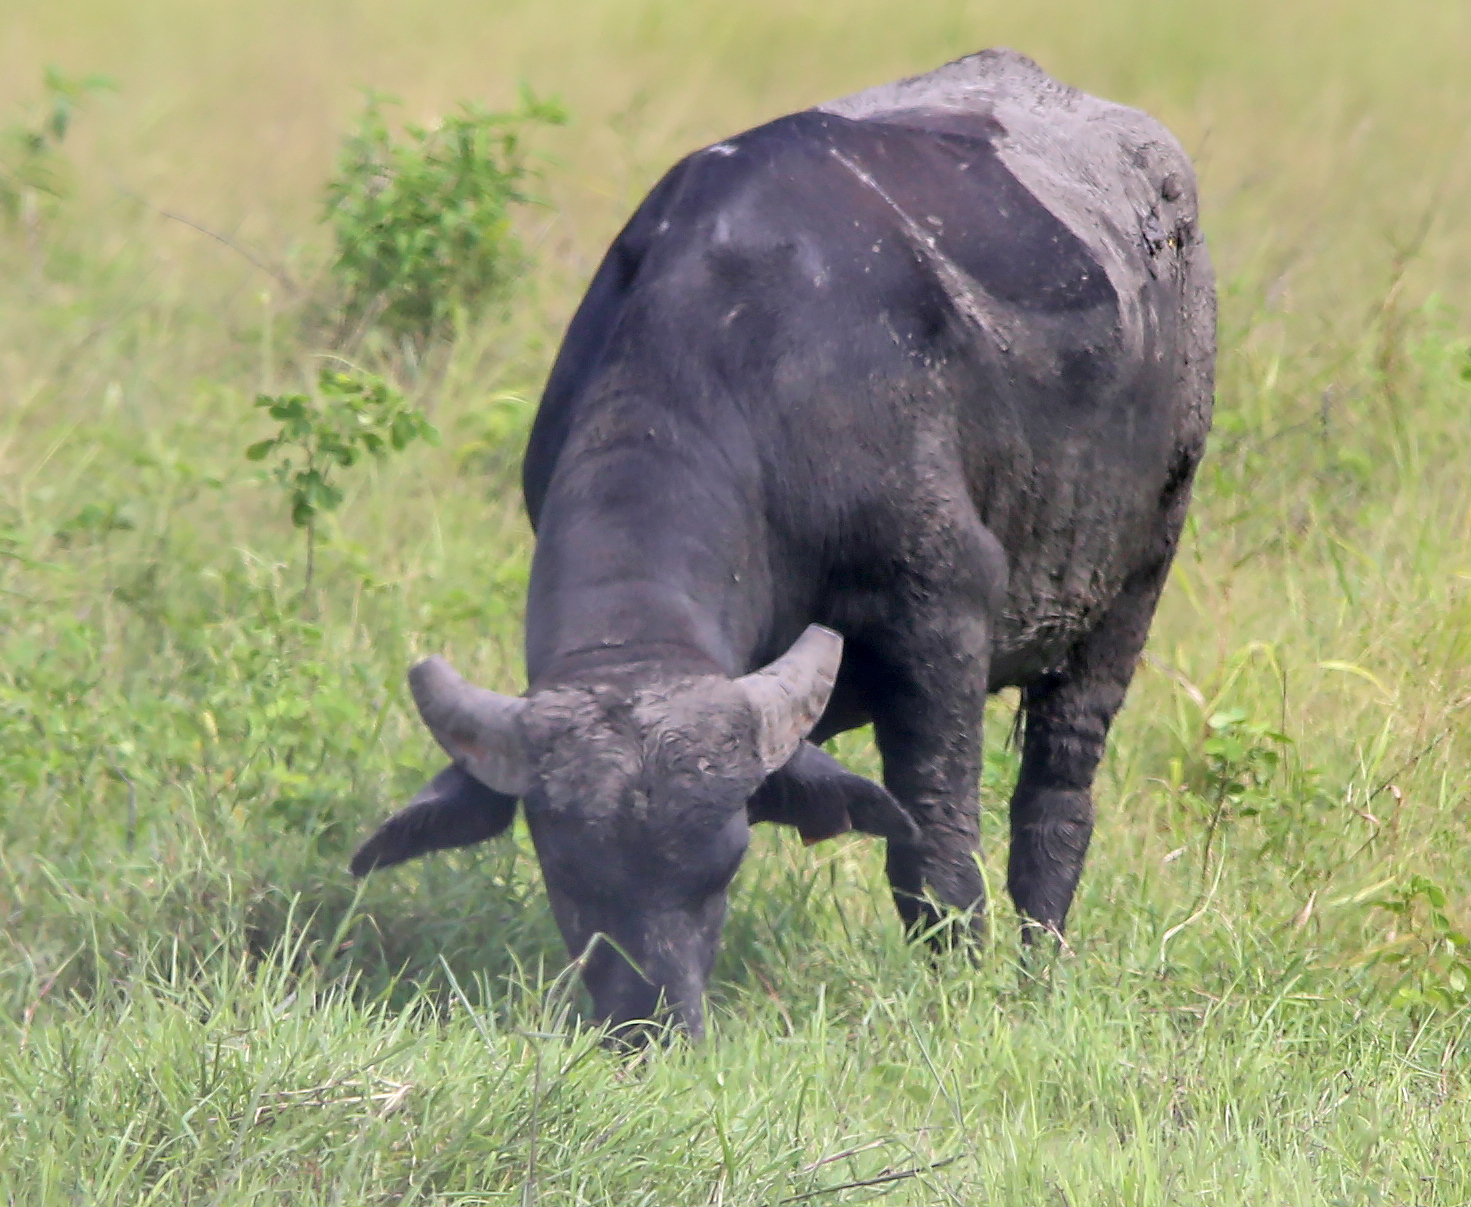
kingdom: Animalia
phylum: Chordata
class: Mammalia
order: Artiodactyla
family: Bovidae
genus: Bubalus
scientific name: Bubalus bubalis
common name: Water buffalo
